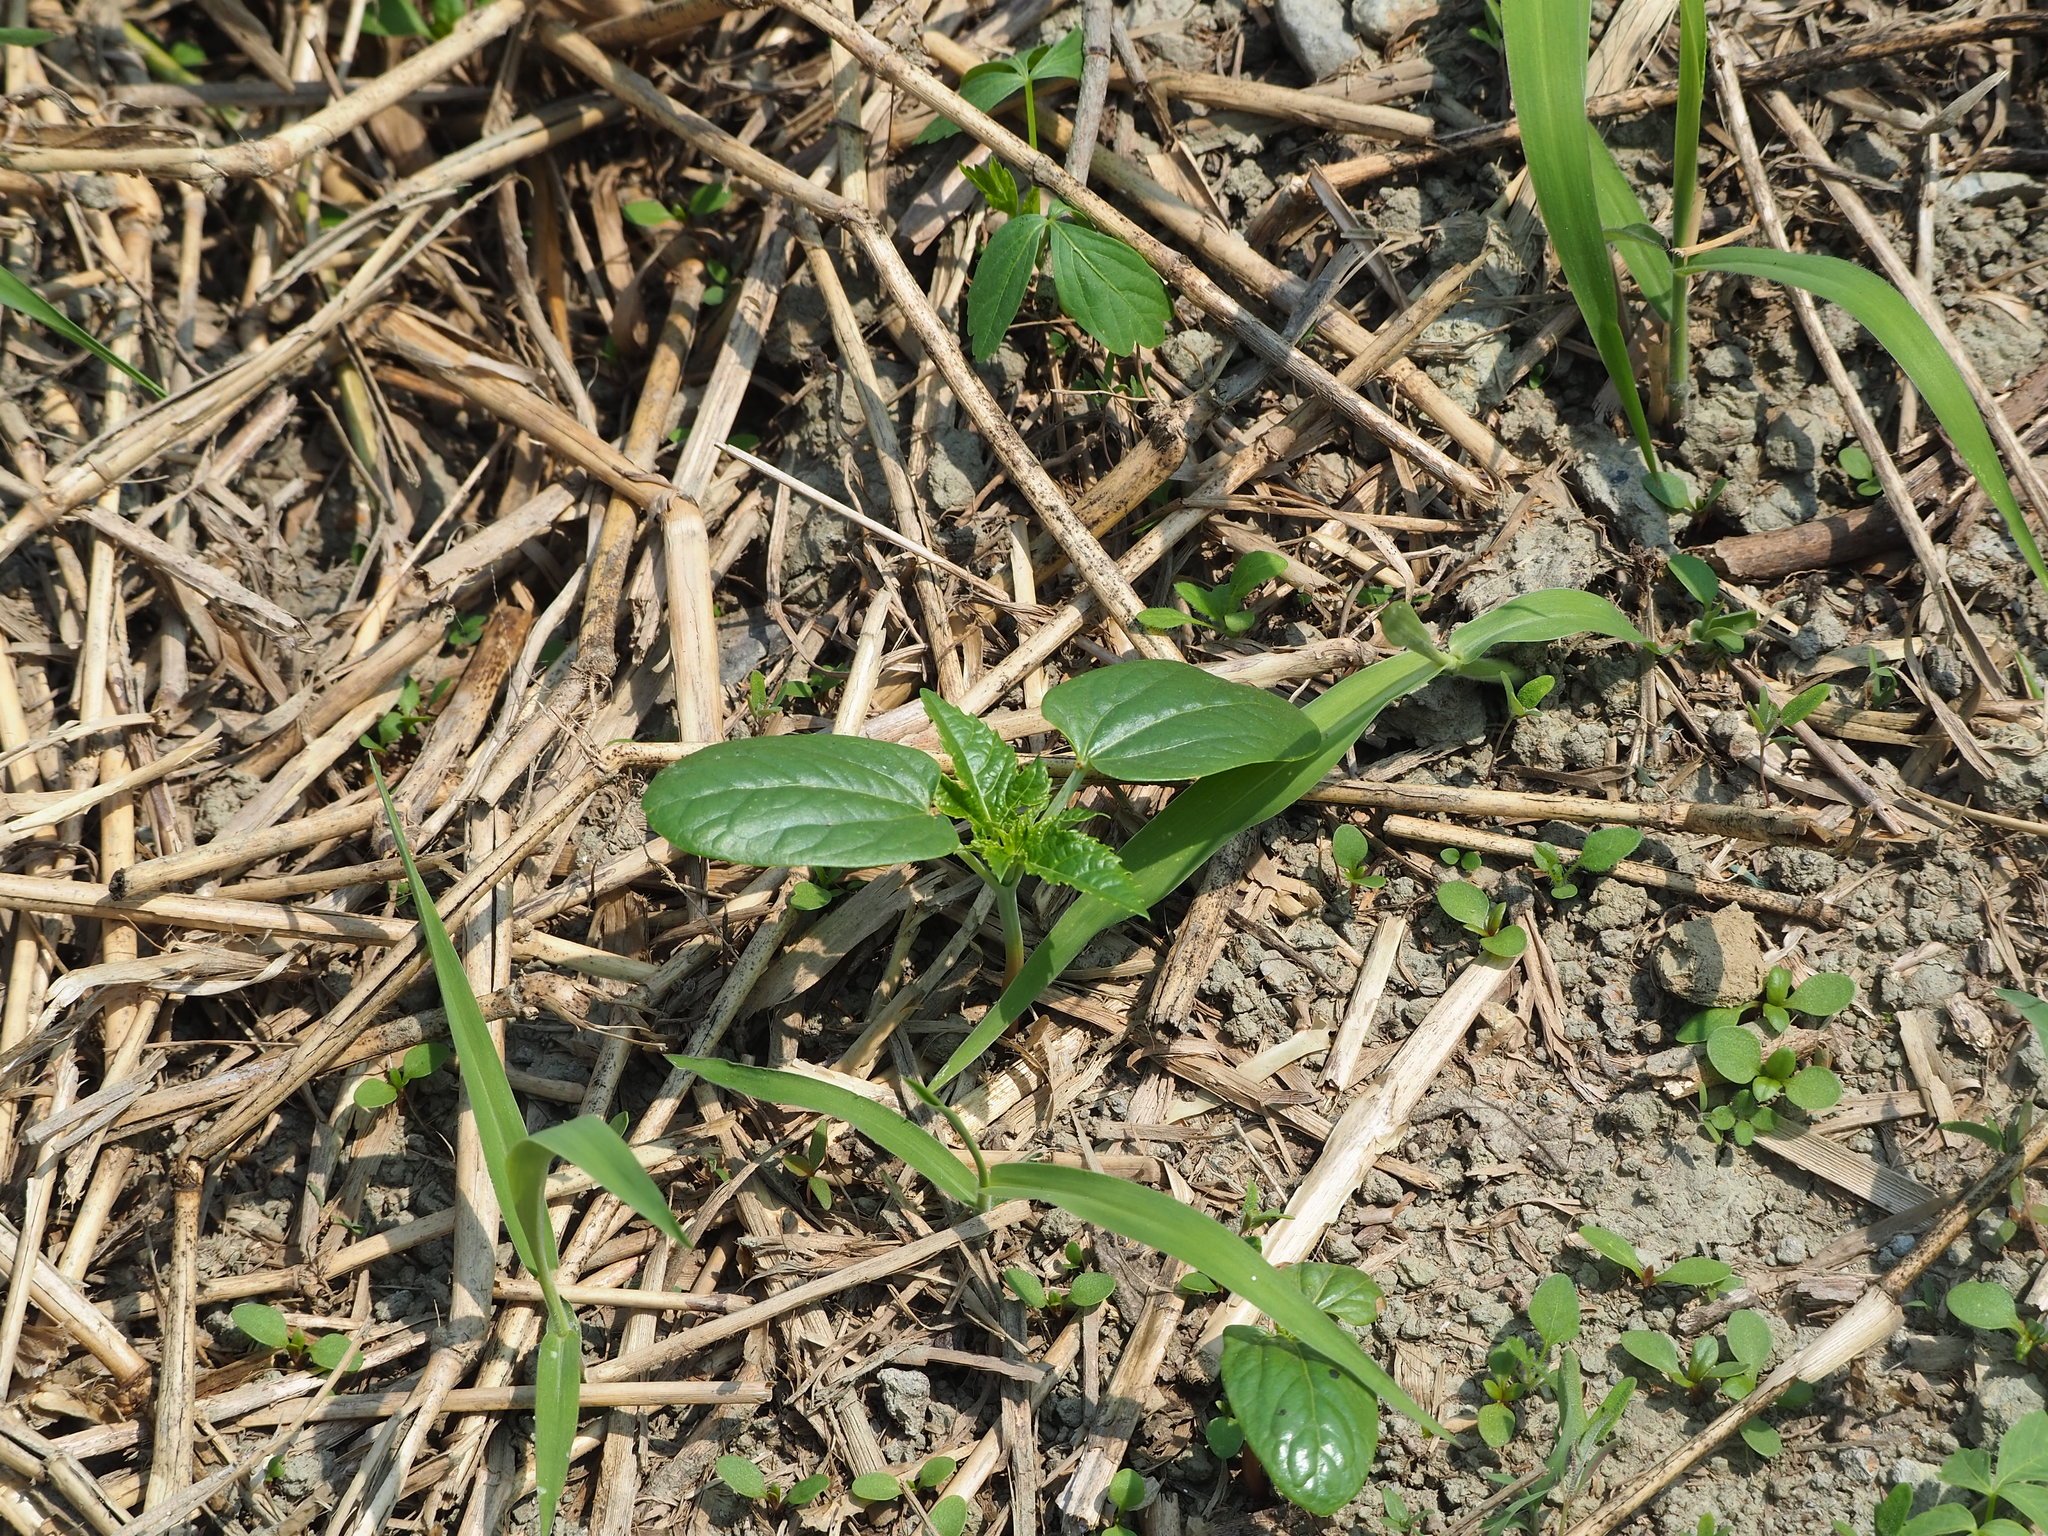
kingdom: Plantae
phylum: Tracheophyta
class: Magnoliopsida
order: Malpighiales
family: Euphorbiaceae
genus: Ricinus
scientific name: Ricinus communis
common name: Castor-oil-plant
